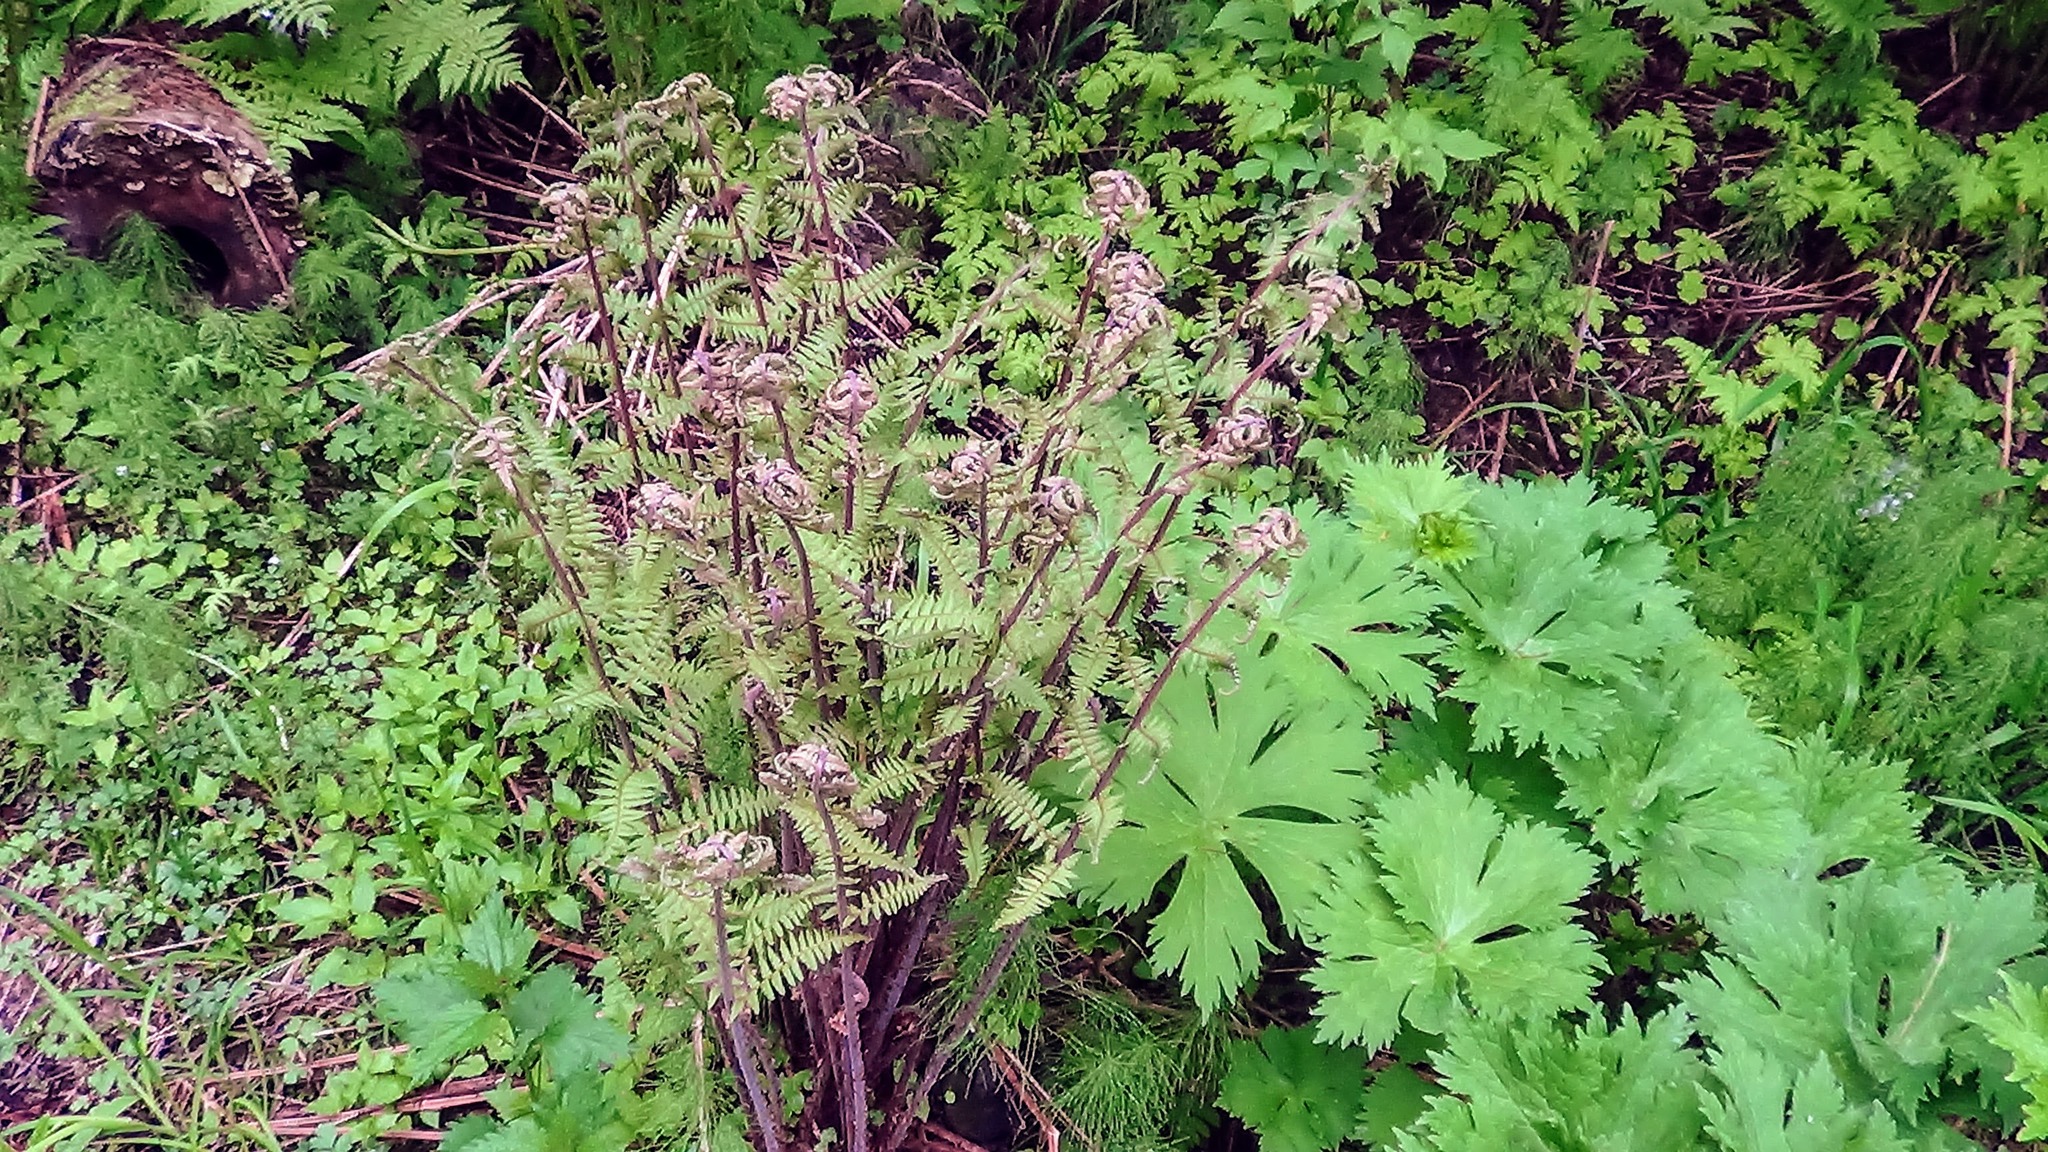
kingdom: Plantae
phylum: Tracheophyta
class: Polypodiopsida
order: Polypodiales
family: Athyriaceae
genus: Athyrium
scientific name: Athyrium filix-femina
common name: Lady fern
